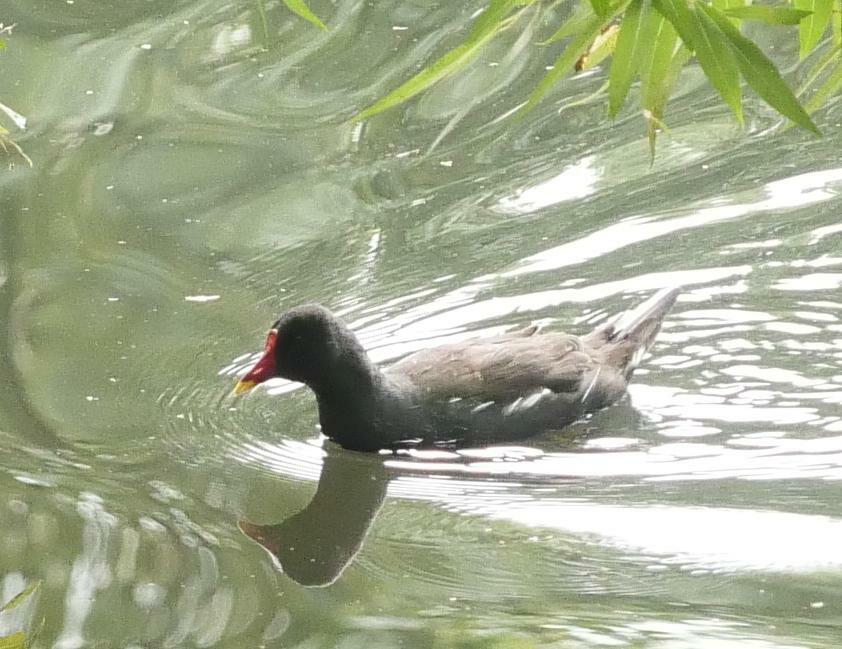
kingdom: Animalia
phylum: Chordata
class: Aves
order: Gruiformes
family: Rallidae
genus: Gallinula
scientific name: Gallinula chloropus
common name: Common moorhen
